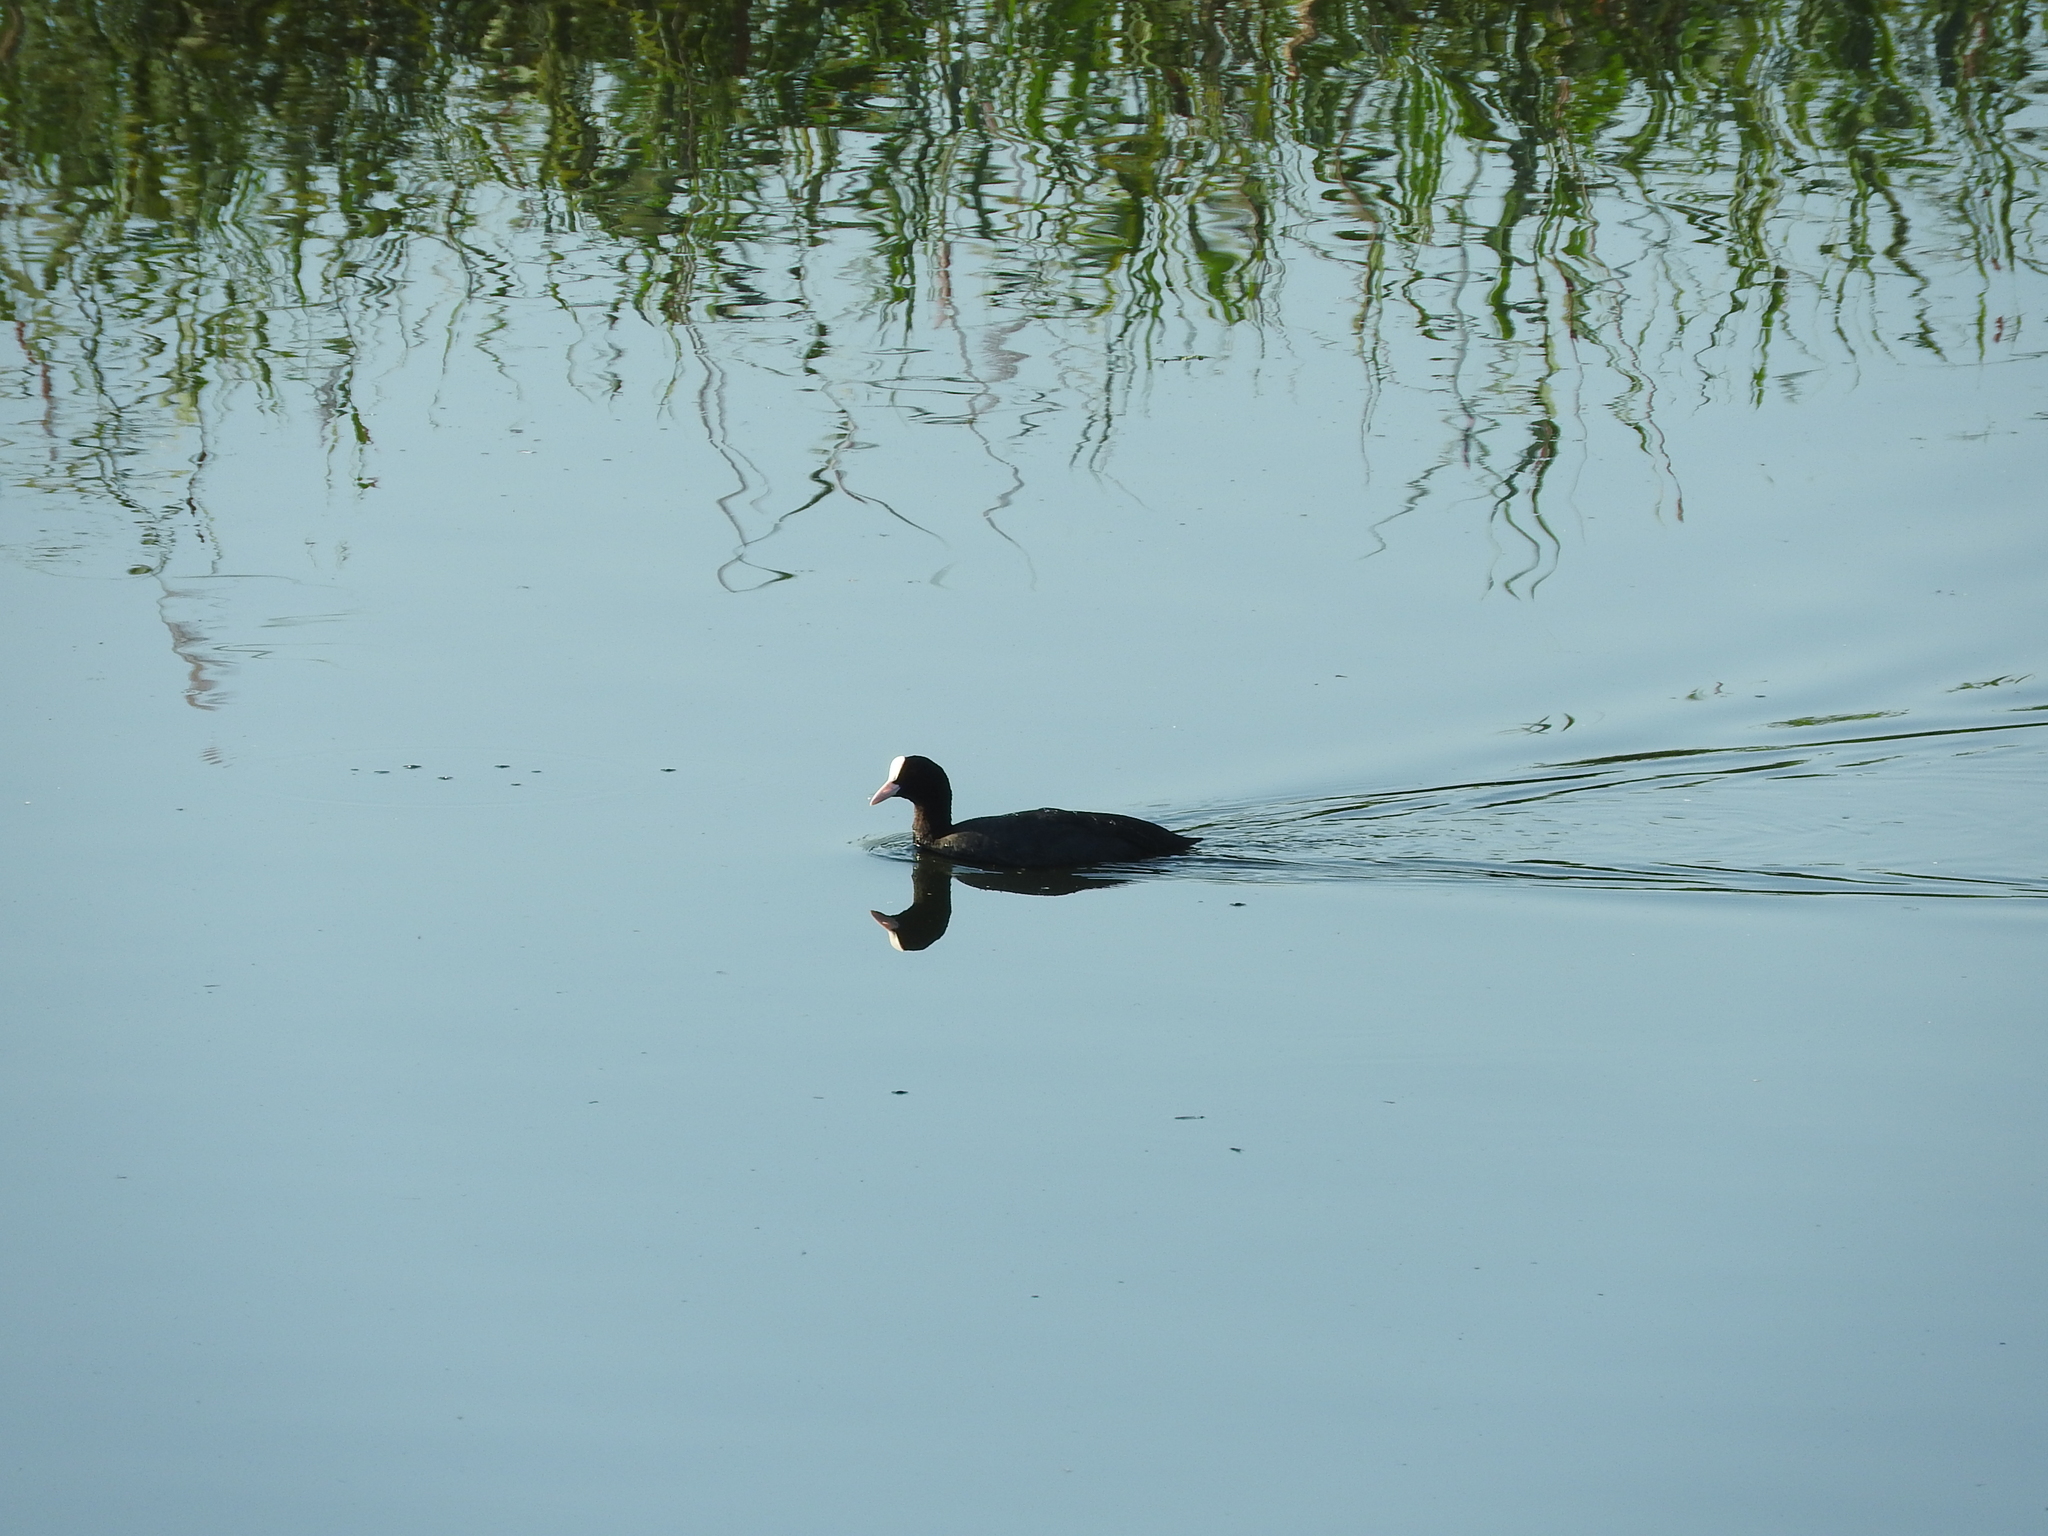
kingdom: Animalia
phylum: Chordata
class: Aves
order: Gruiformes
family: Rallidae
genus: Fulica
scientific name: Fulica atra
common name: Eurasian coot
